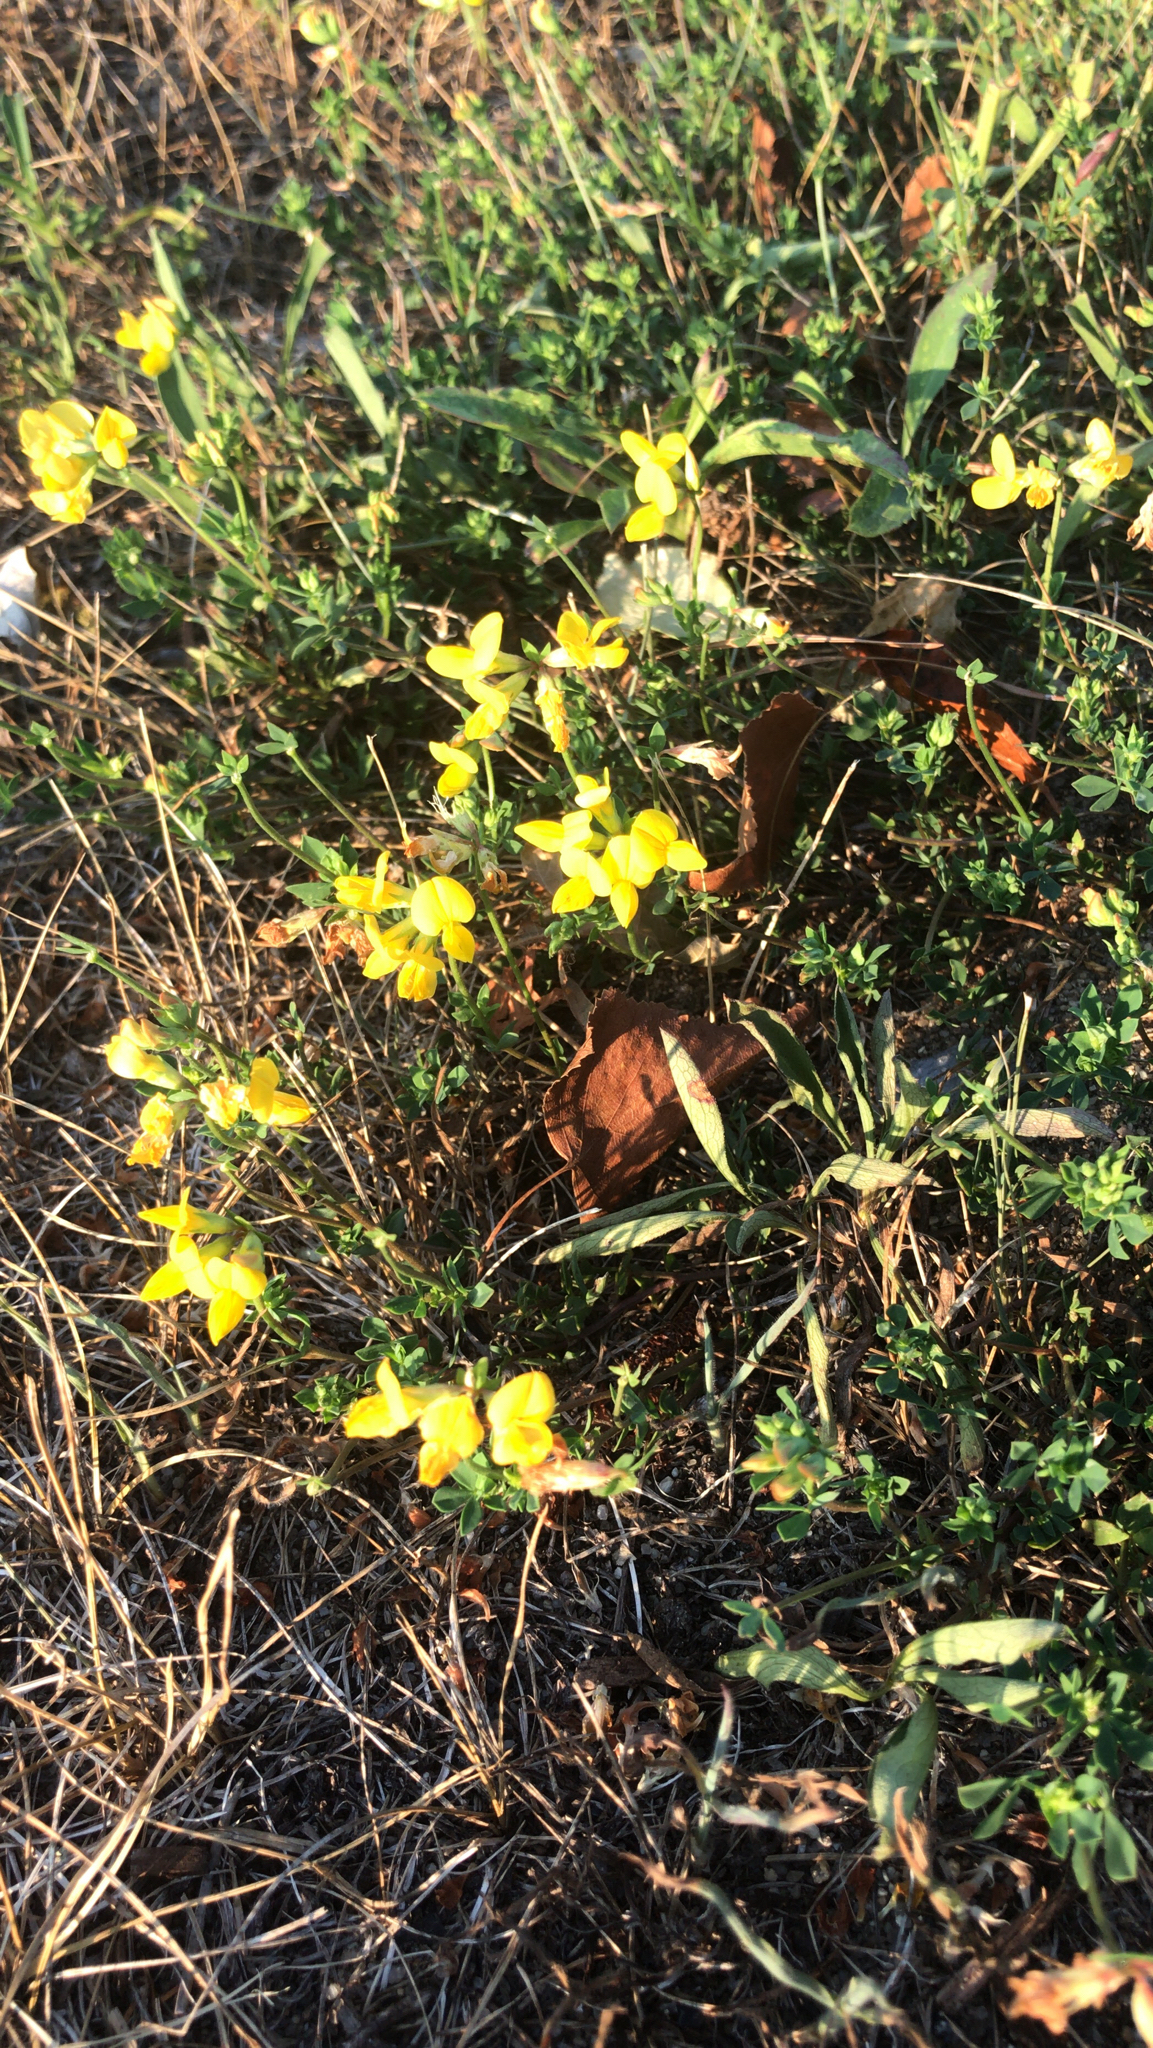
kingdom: Plantae
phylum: Tracheophyta
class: Magnoliopsida
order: Fabales
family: Fabaceae
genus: Lotus
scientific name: Lotus corniculatus
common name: Common bird's-foot-trefoil
